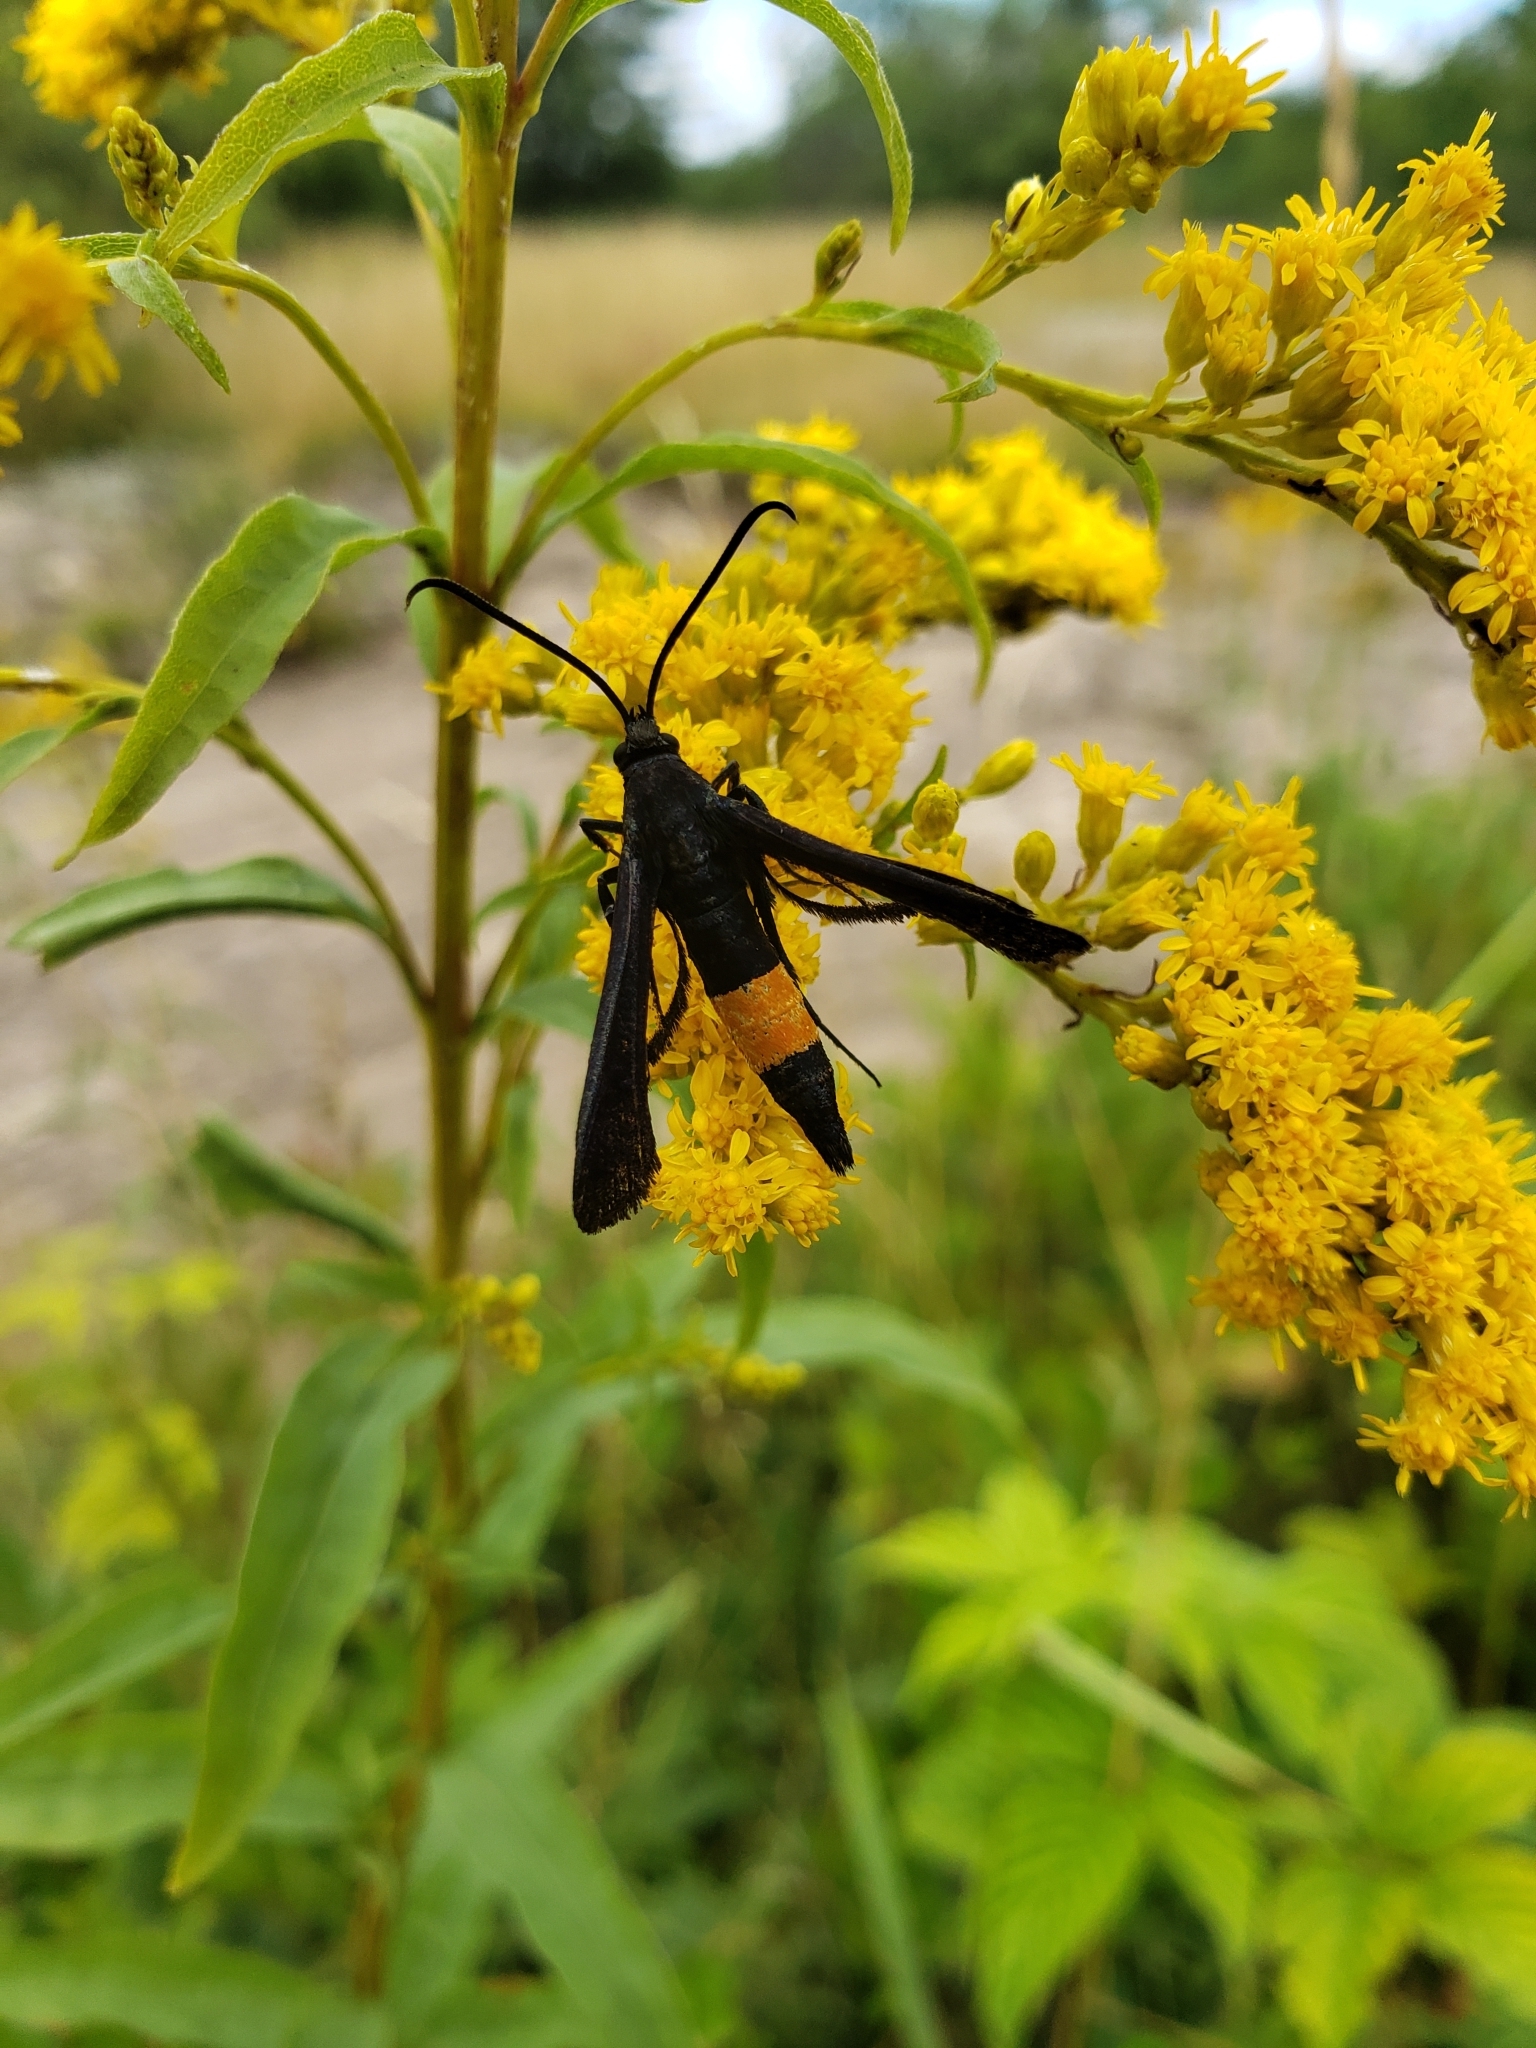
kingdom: Animalia
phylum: Arthropoda
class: Insecta
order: Lepidoptera
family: Sesiidae
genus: Synanthedon
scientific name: Synanthedon exitiosa
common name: Peachtree borer moth
